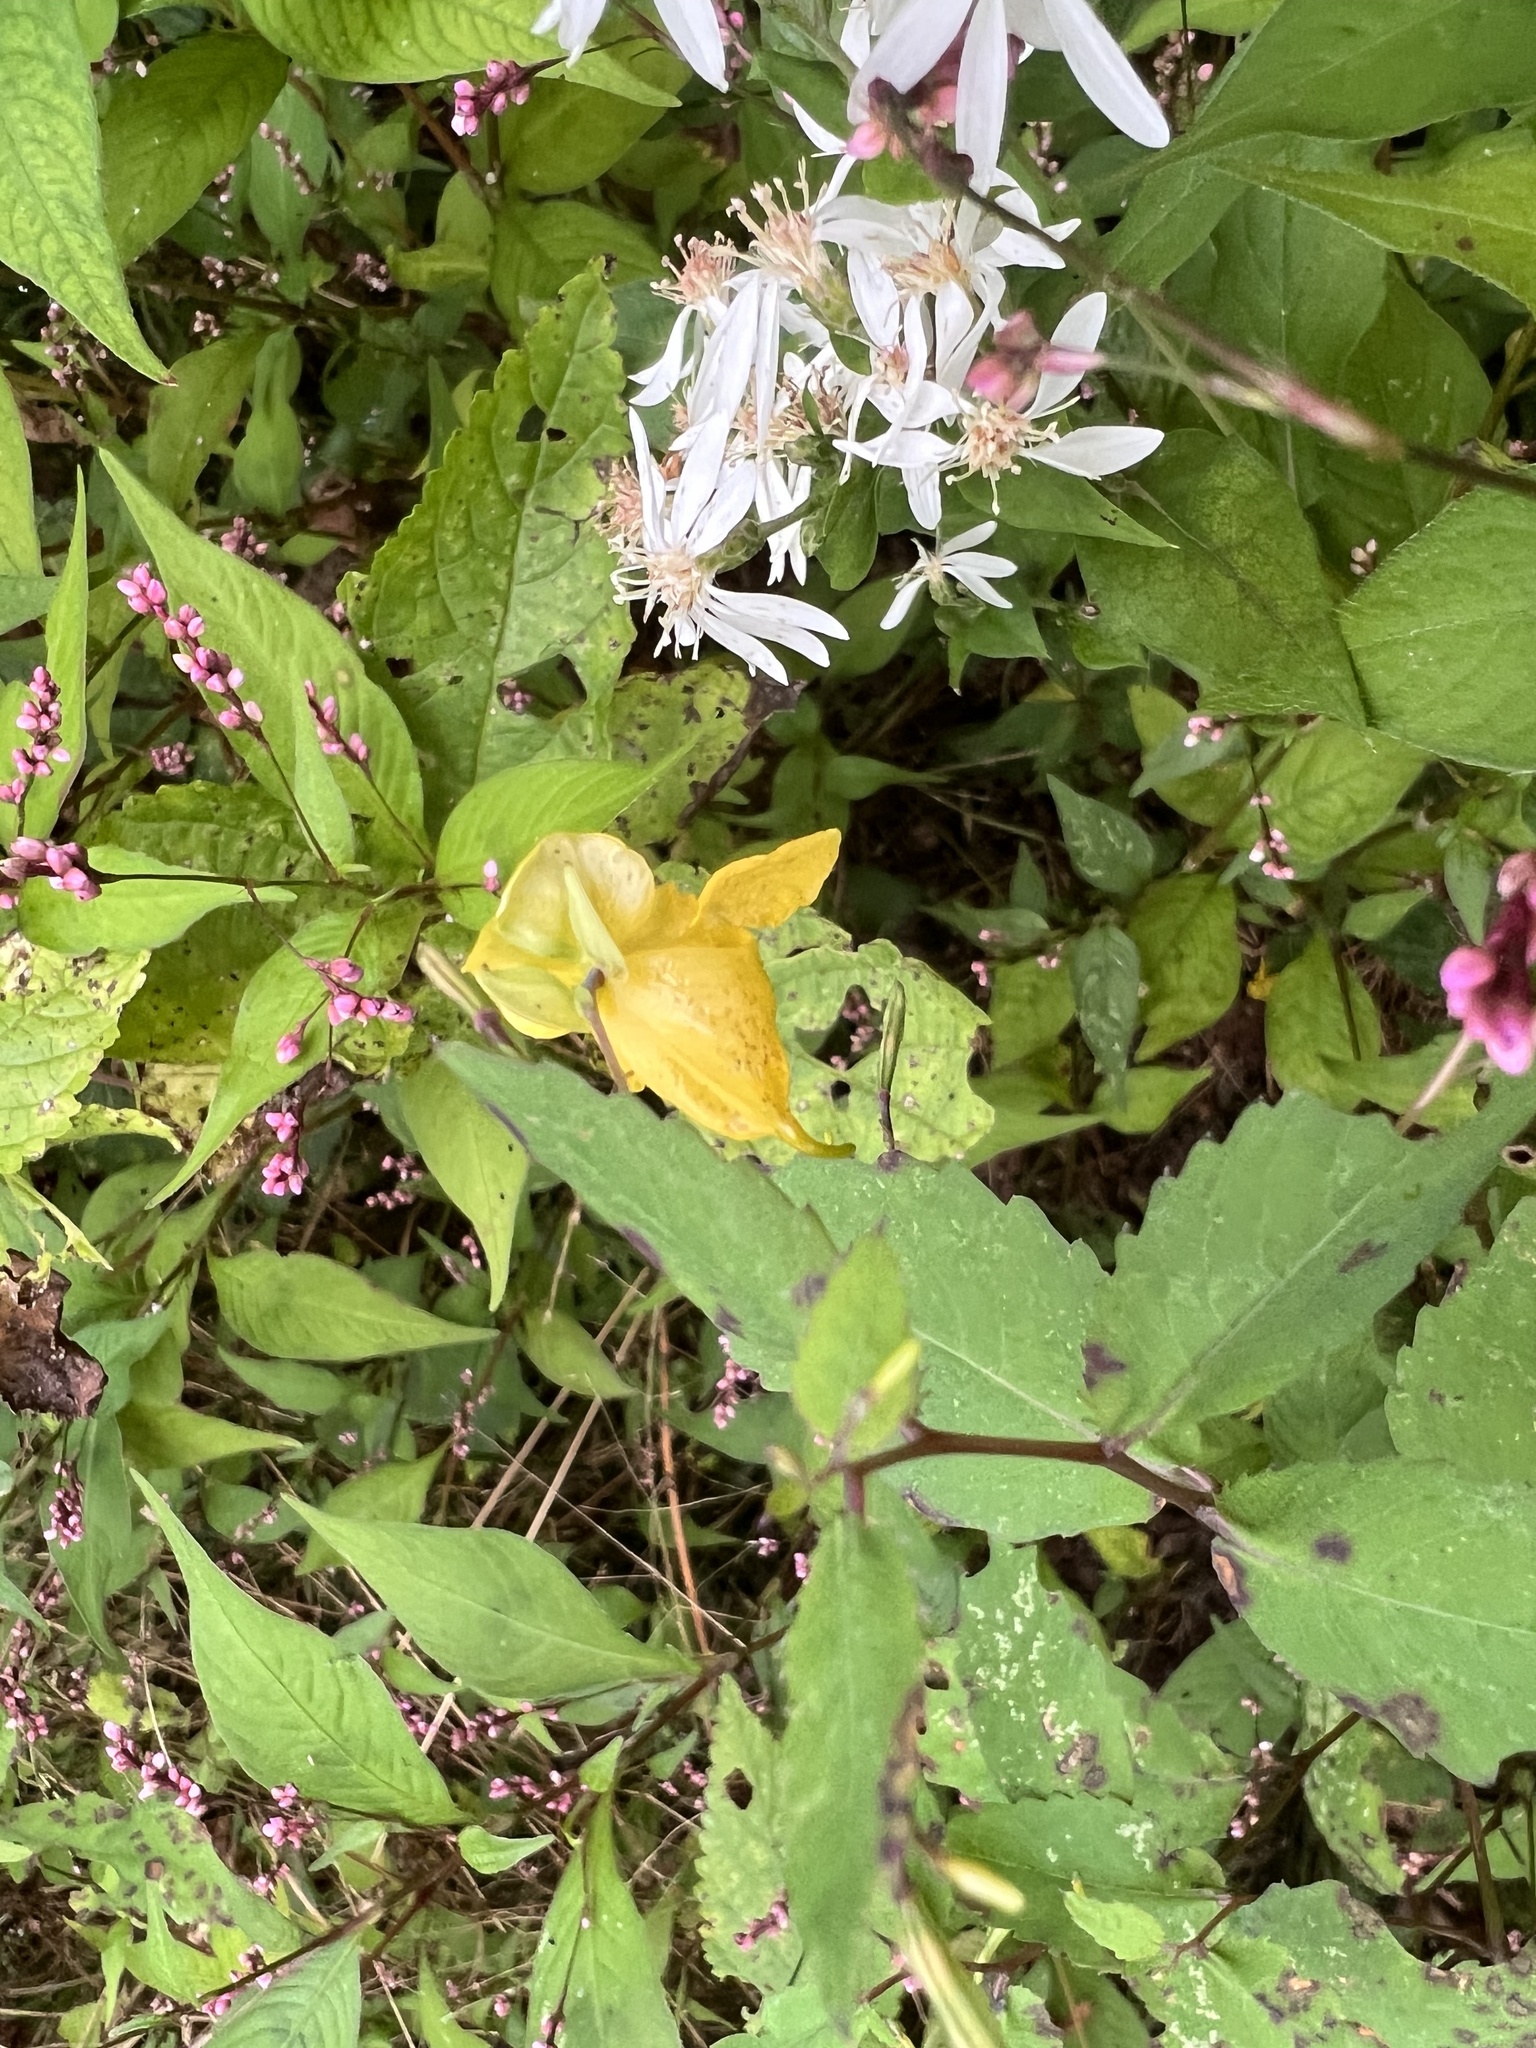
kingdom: Plantae
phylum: Tracheophyta
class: Magnoliopsida
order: Ericales
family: Balsaminaceae
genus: Impatiens
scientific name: Impatiens pallida
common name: Pale snapweed
